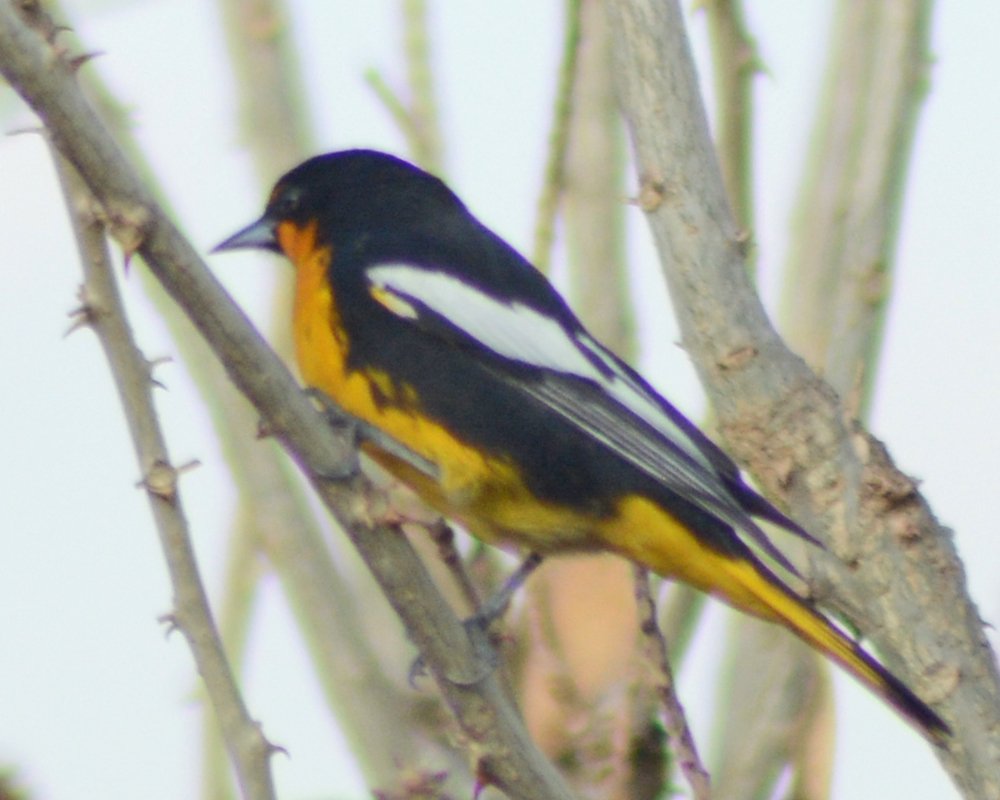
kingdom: Animalia
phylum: Chordata
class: Aves
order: Passeriformes
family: Icteridae
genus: Icterus
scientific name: Icterus abeillei
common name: Black-backed oriole
